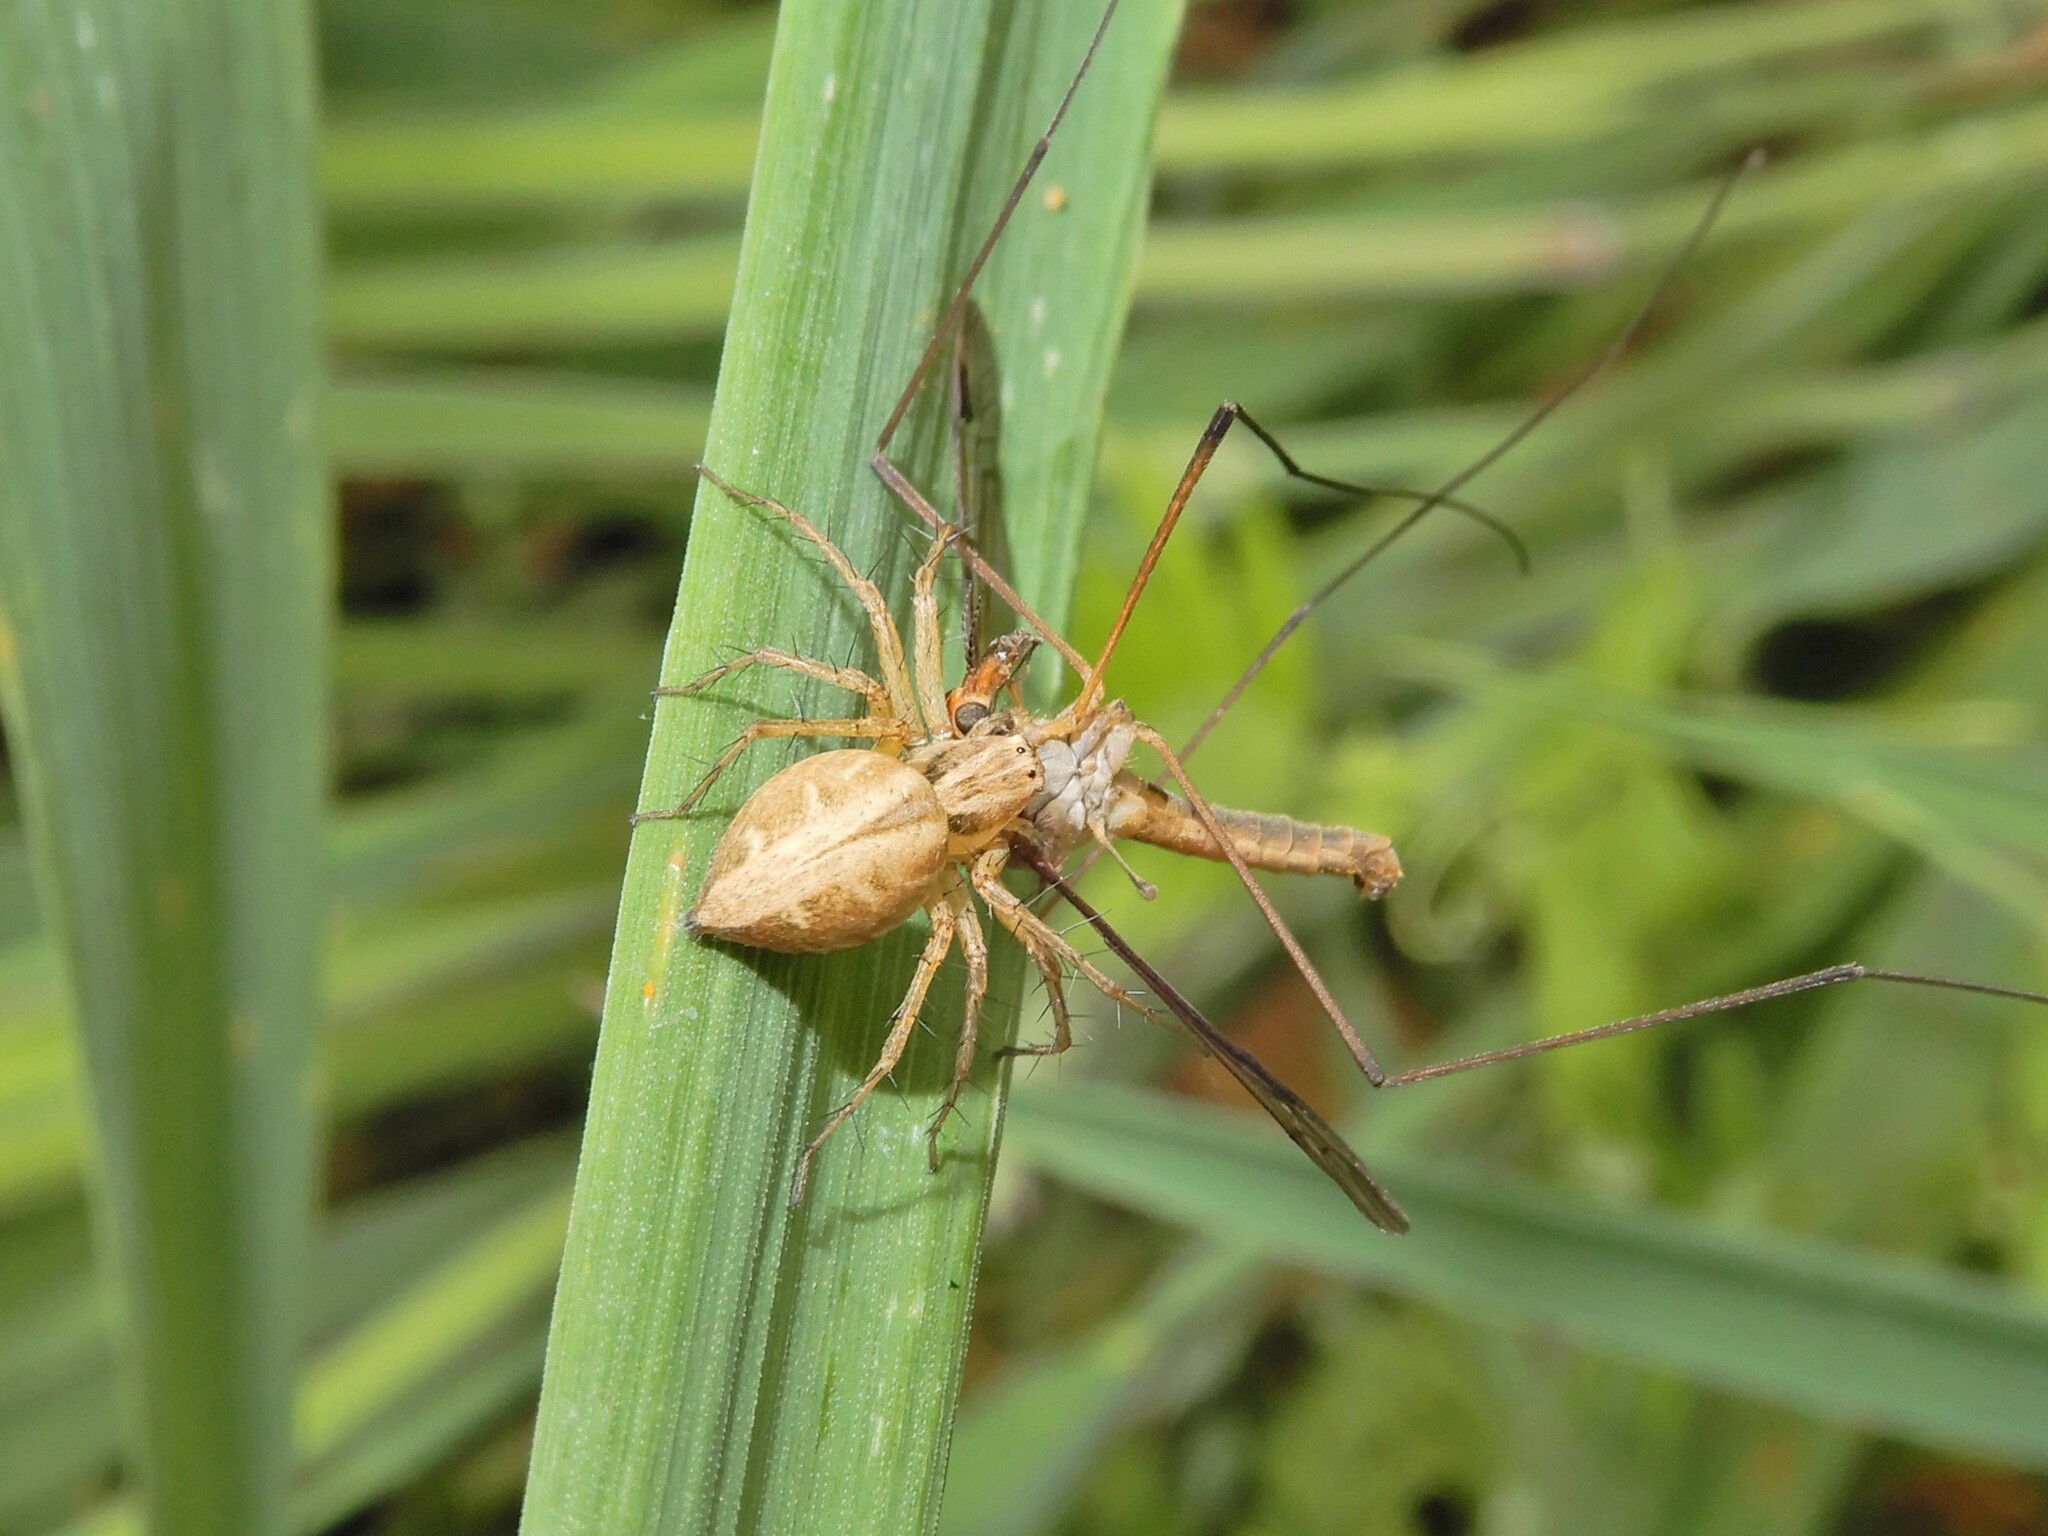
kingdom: Animalia
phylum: Arthropoda
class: Arachnida
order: Araneae
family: Oxyopidae
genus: Oxyopes
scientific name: Oxyopes gracilipes
